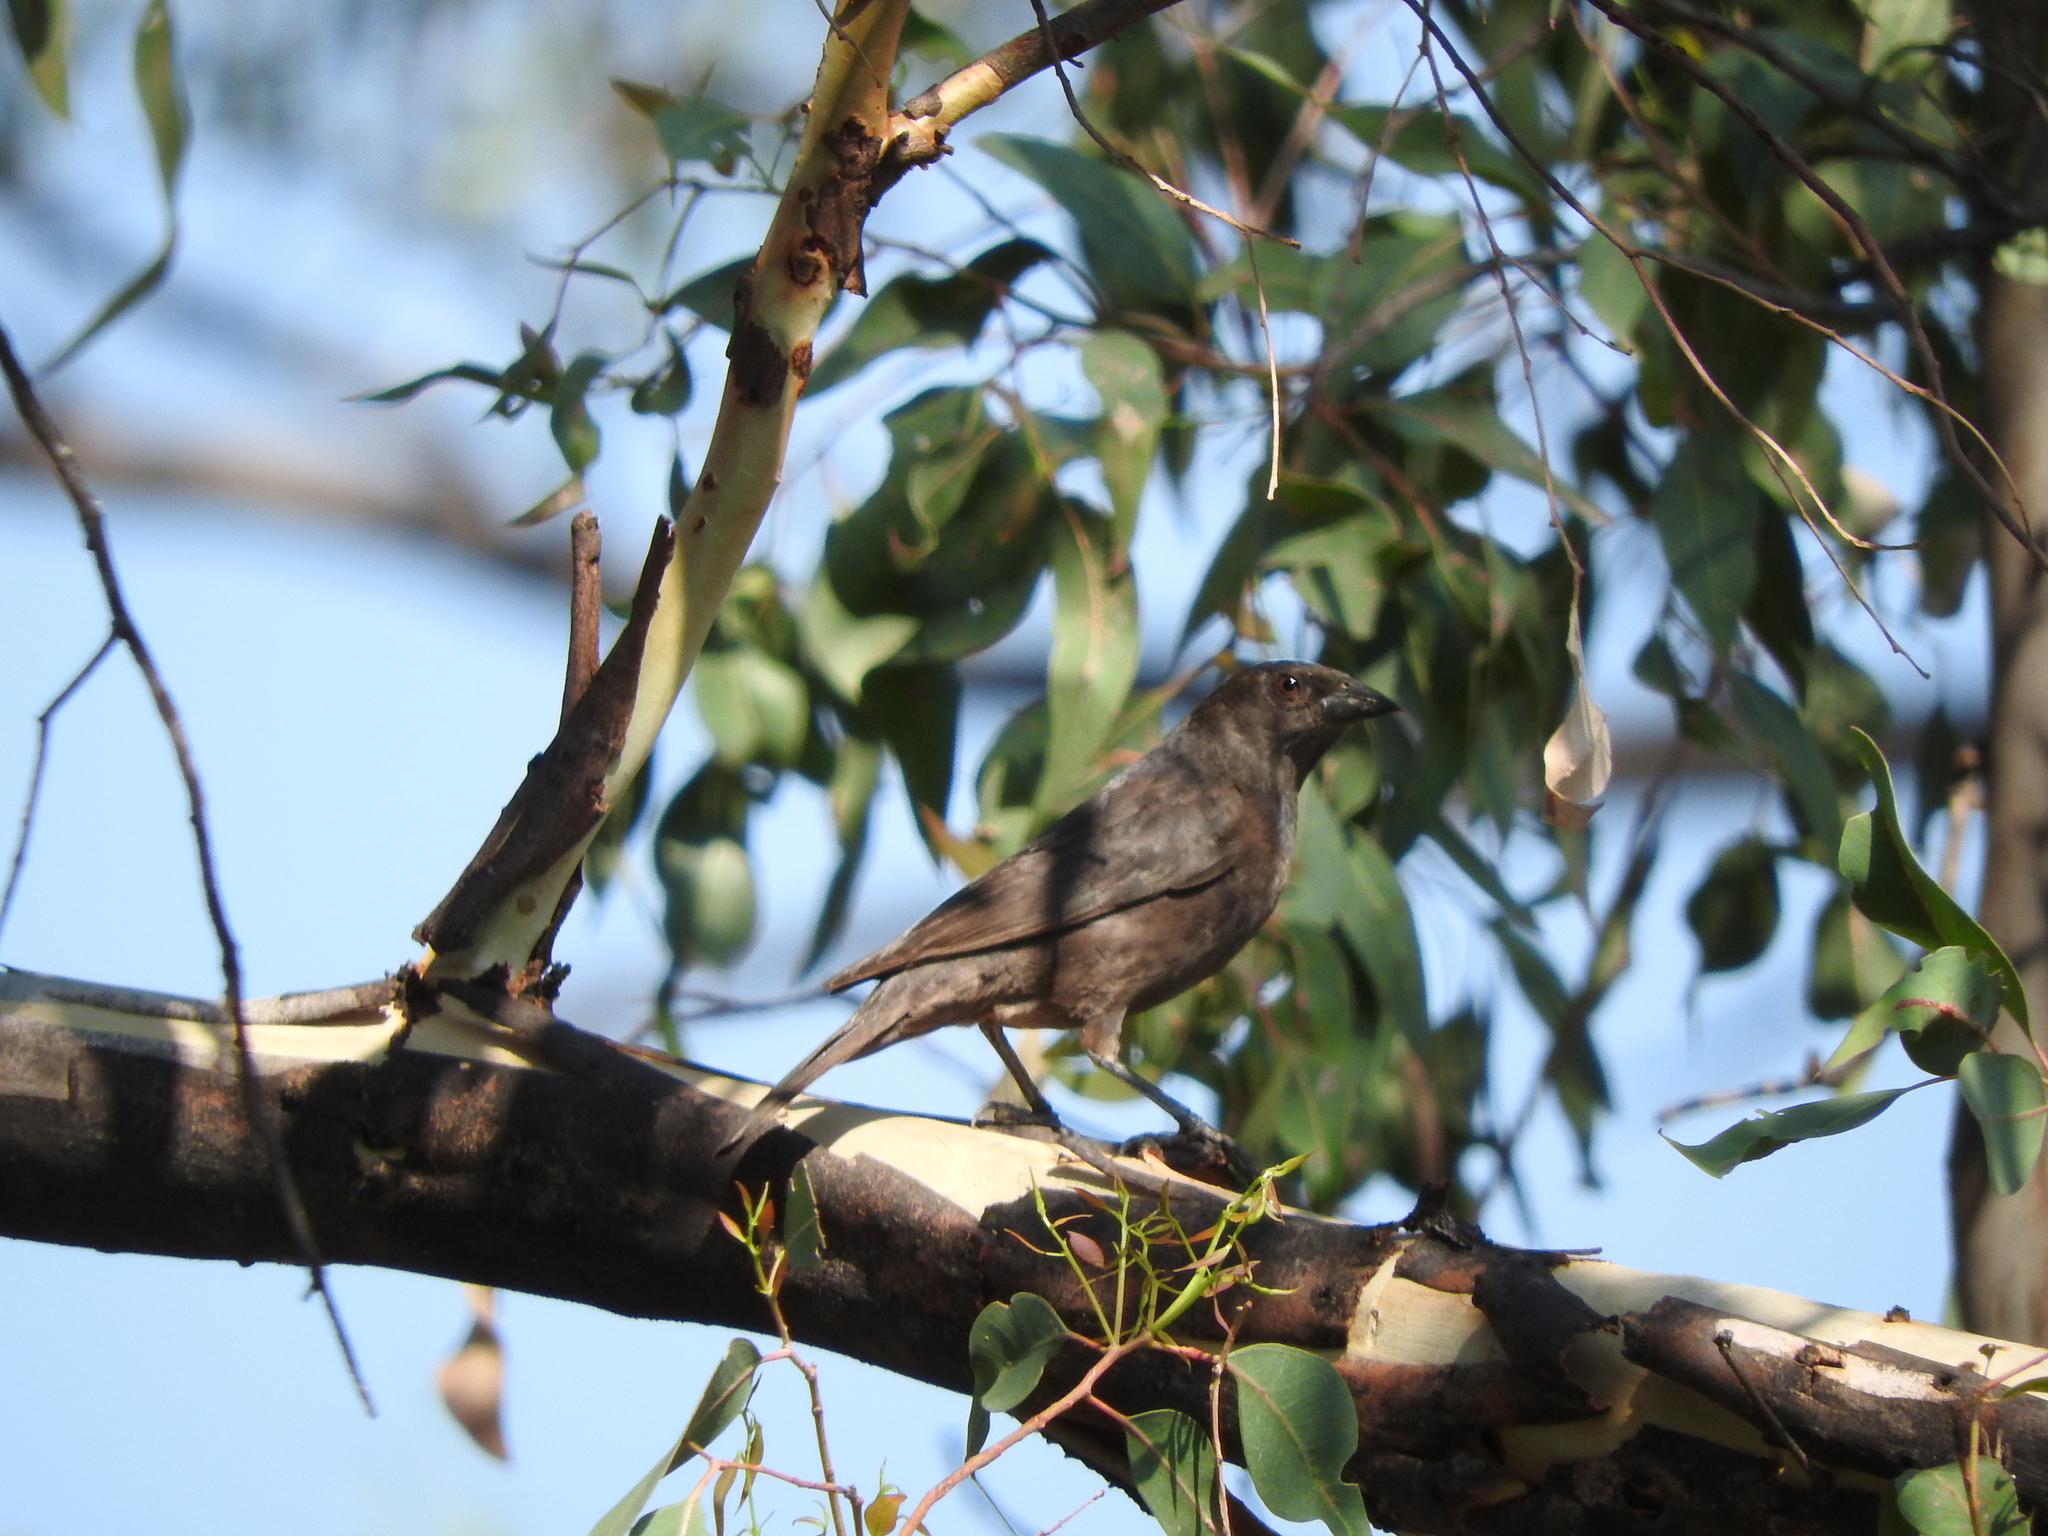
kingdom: Animalia
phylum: Chordata
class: Aves
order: Passeriformes
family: Icteridae
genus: Molothrus
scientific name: Molothrus aeneus
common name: Bronzed cowbird
